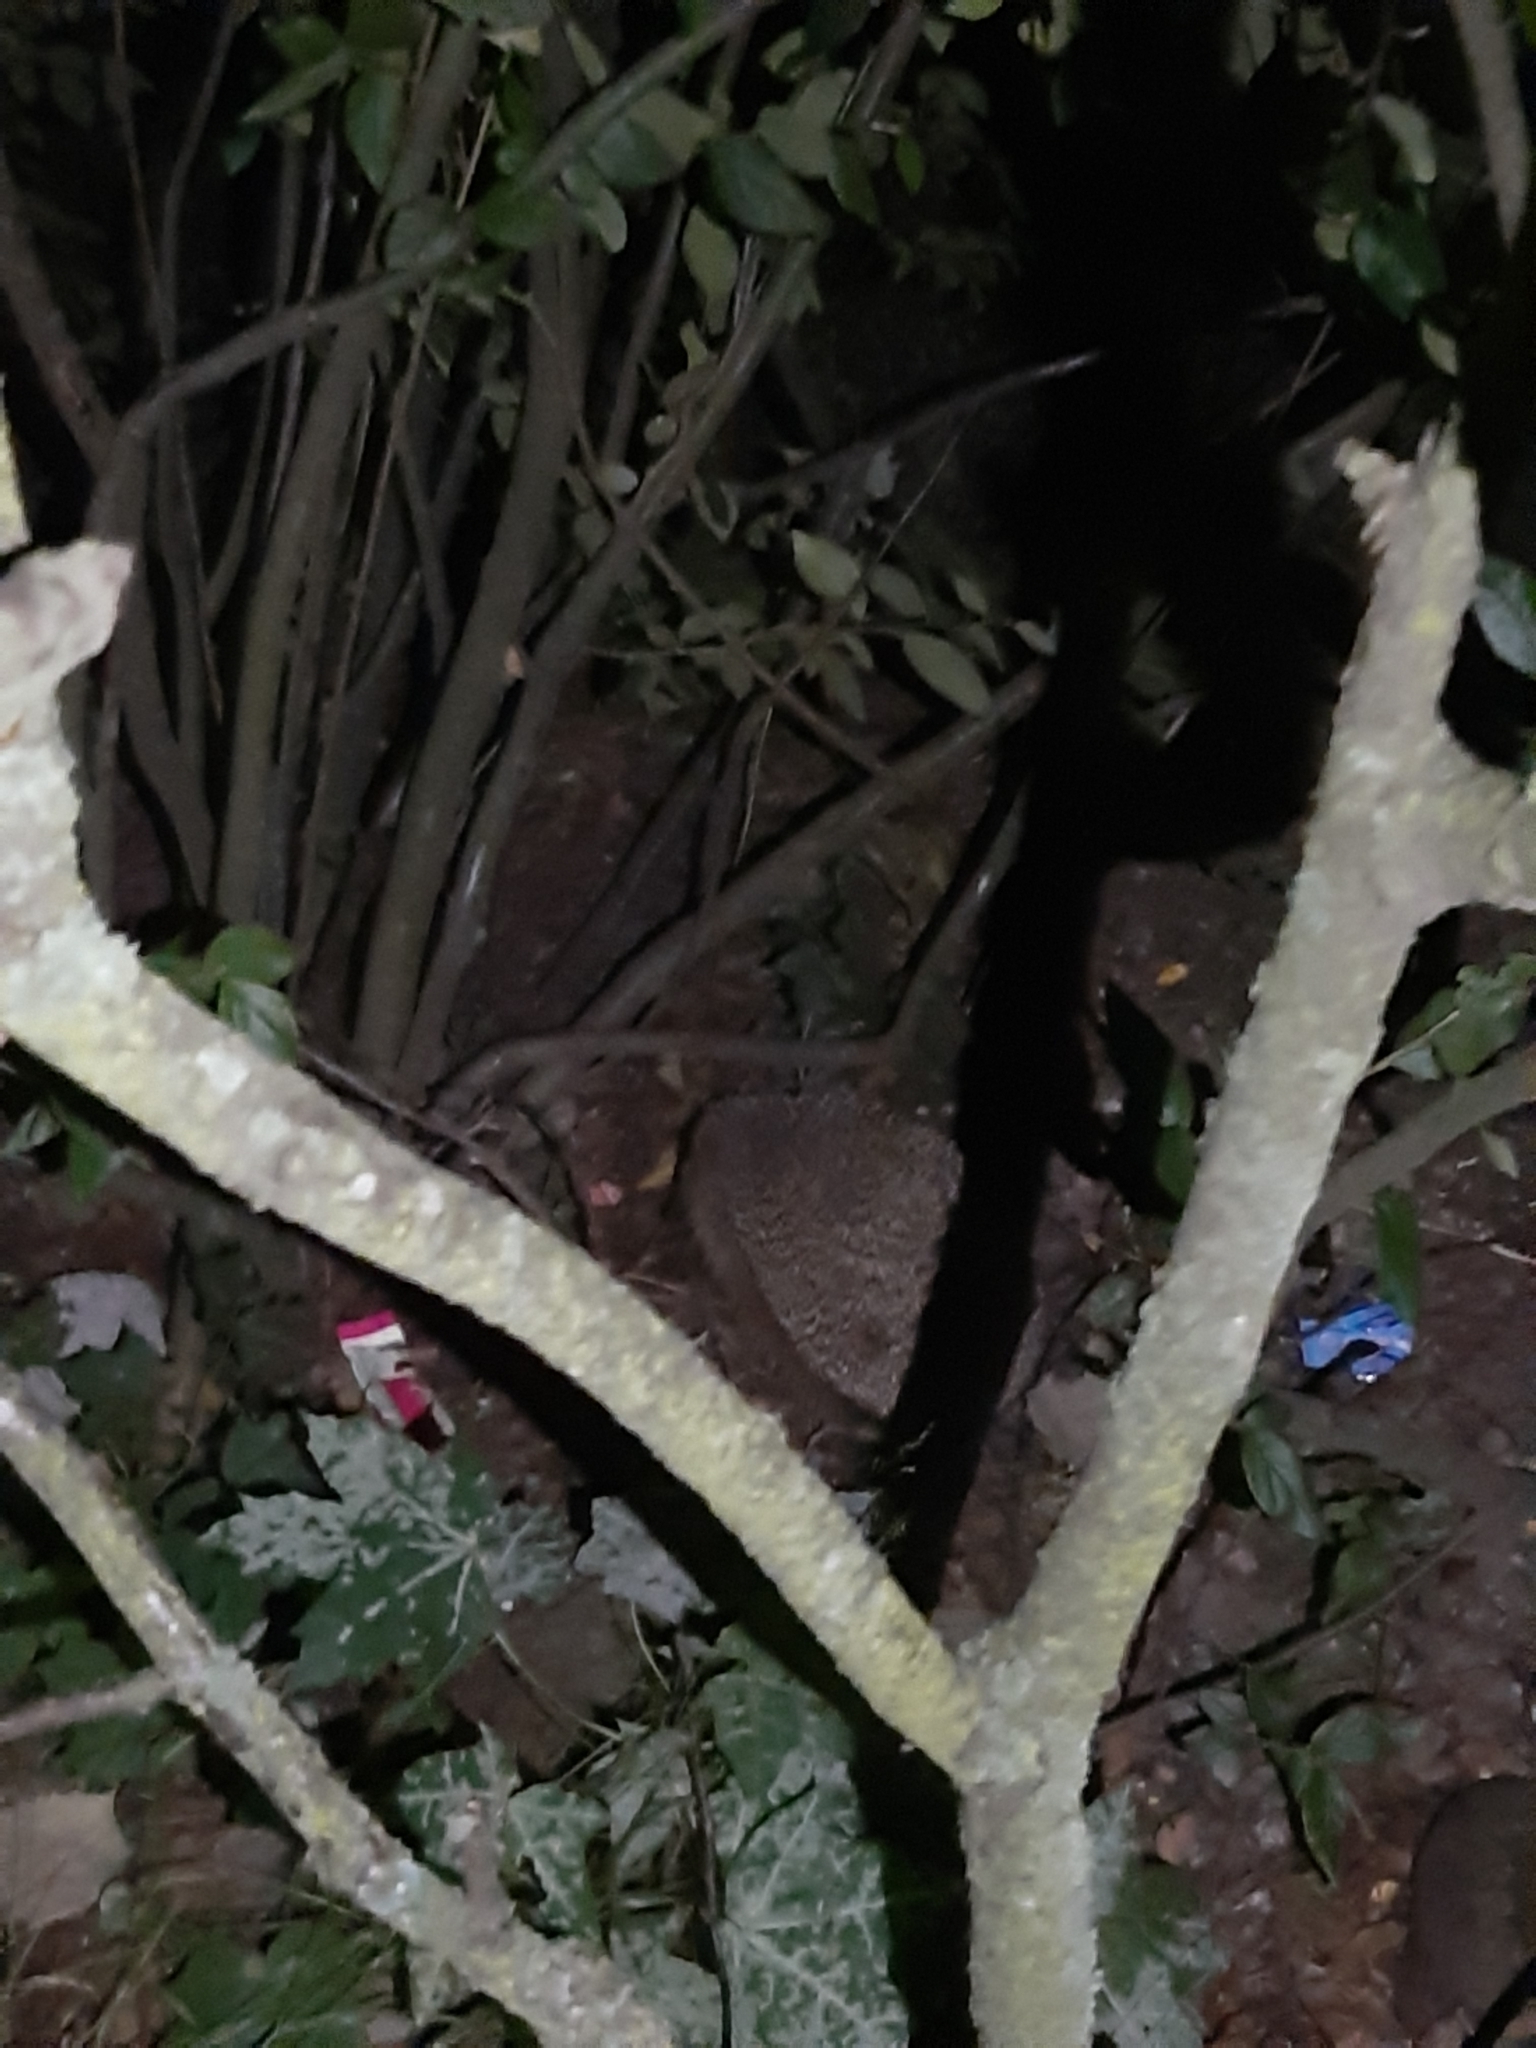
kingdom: Animalia
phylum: Chordata
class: Mammalia
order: Erinaceomorpha
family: Erinaceidae
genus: Erinaceus
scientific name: Erinaceus europaeus
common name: West european hedgehog
